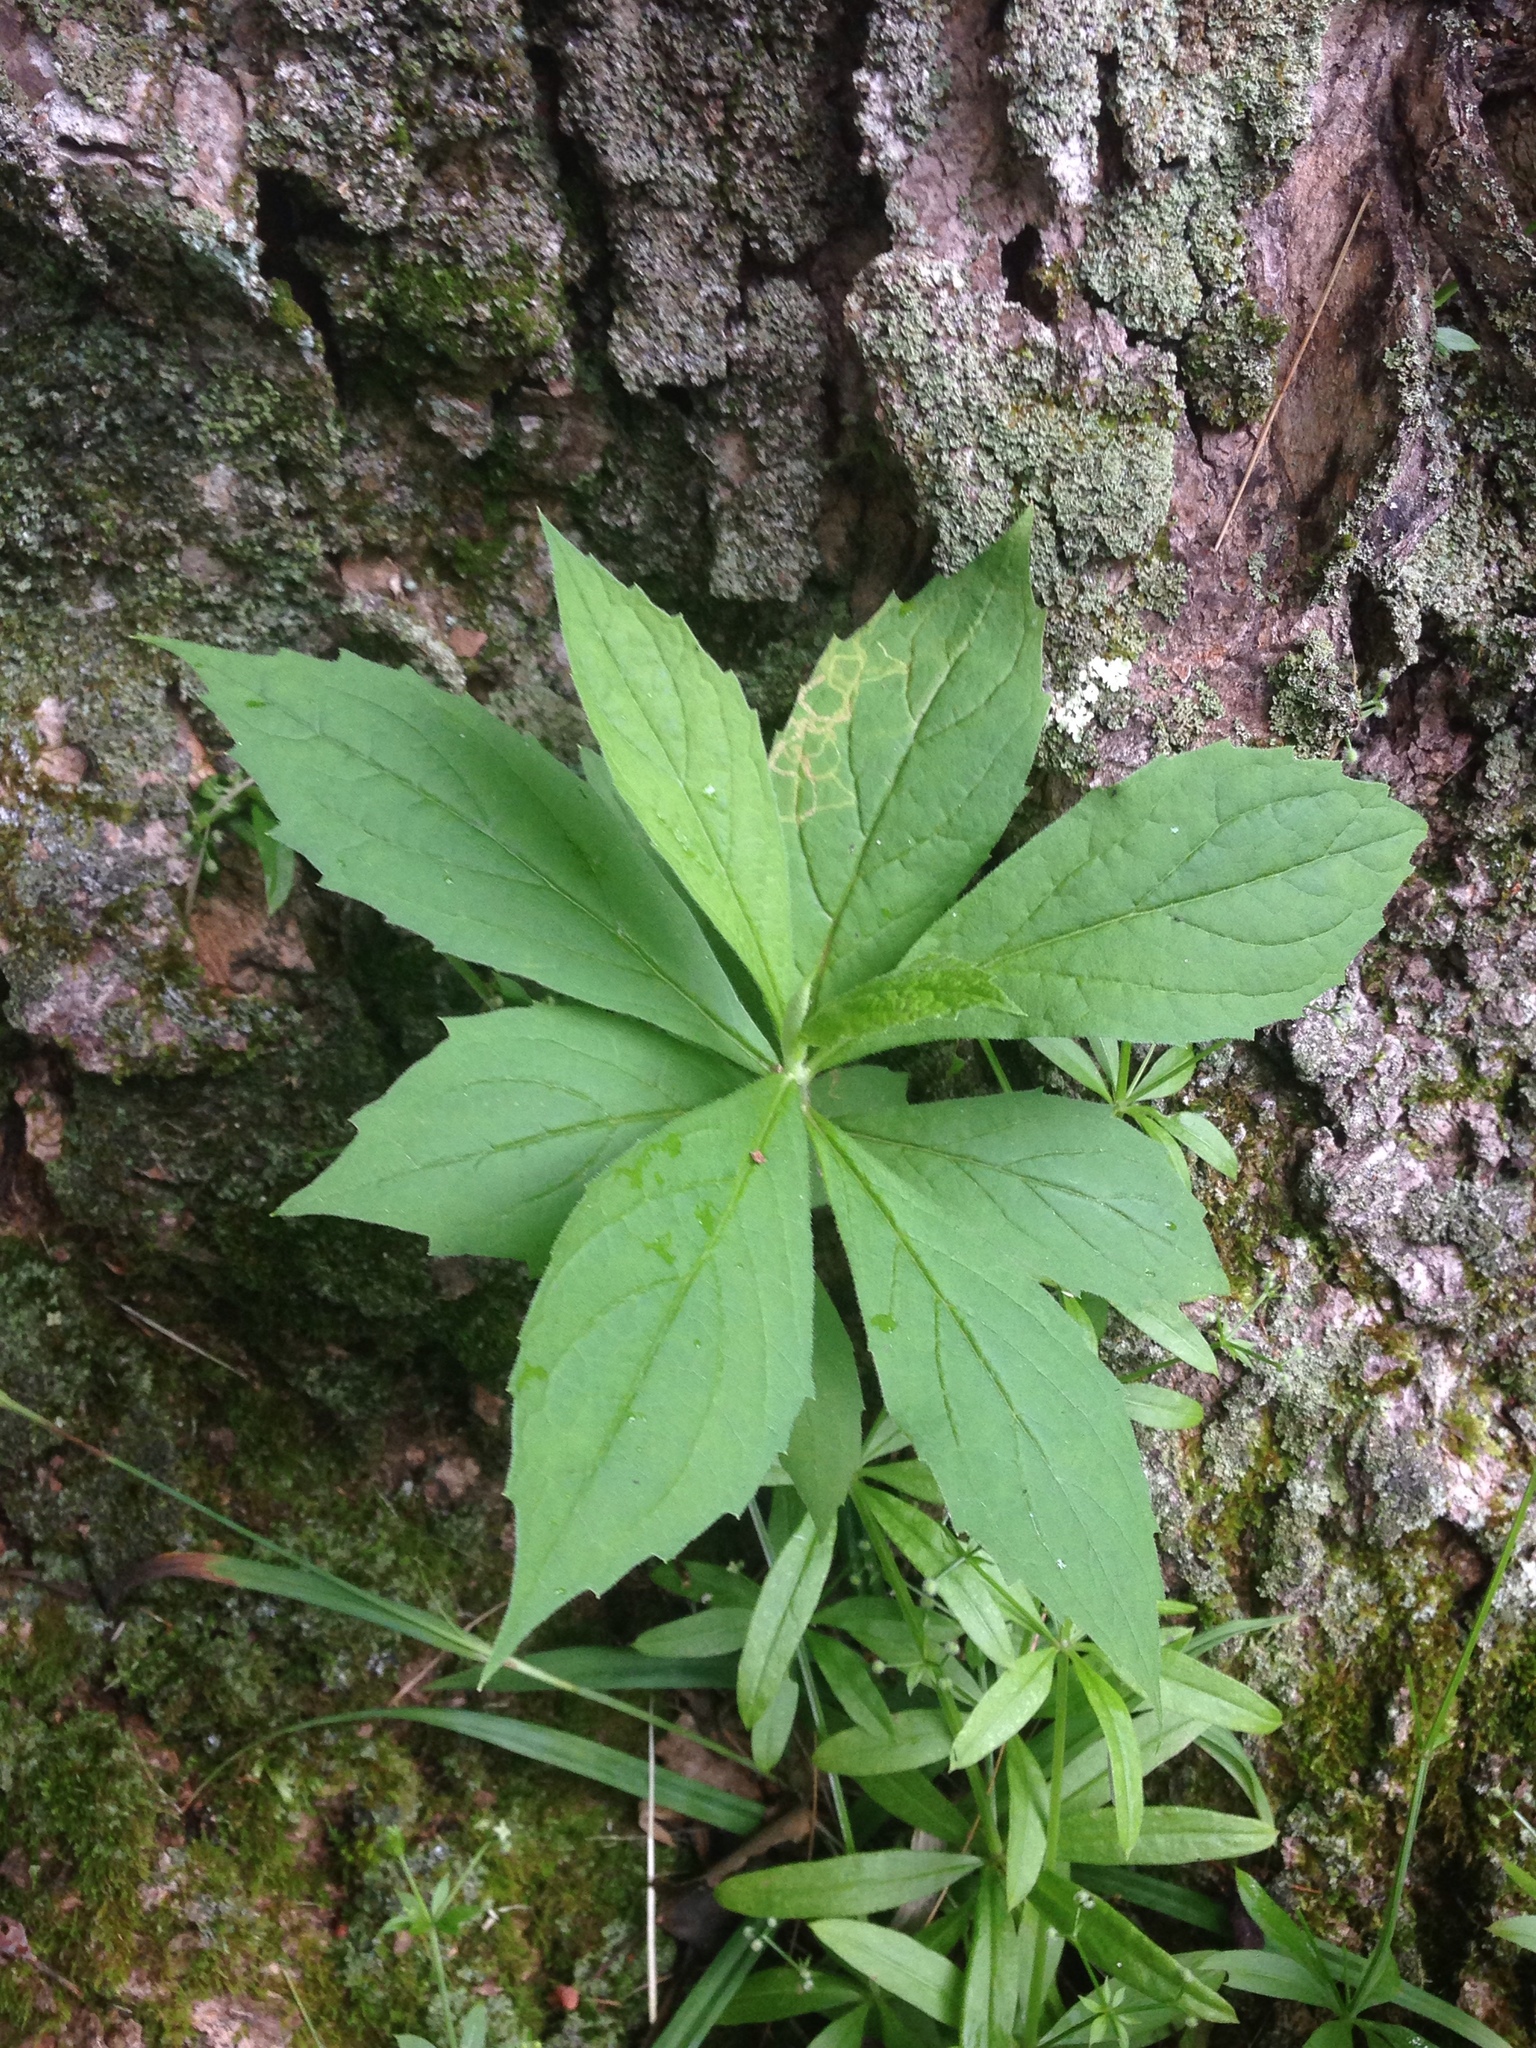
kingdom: Plantae
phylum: Tracheophyta
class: Magnoliopsida
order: Asterales
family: Asteraceae
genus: Oclemena
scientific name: Oclemena acuminata
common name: Mountain aster
